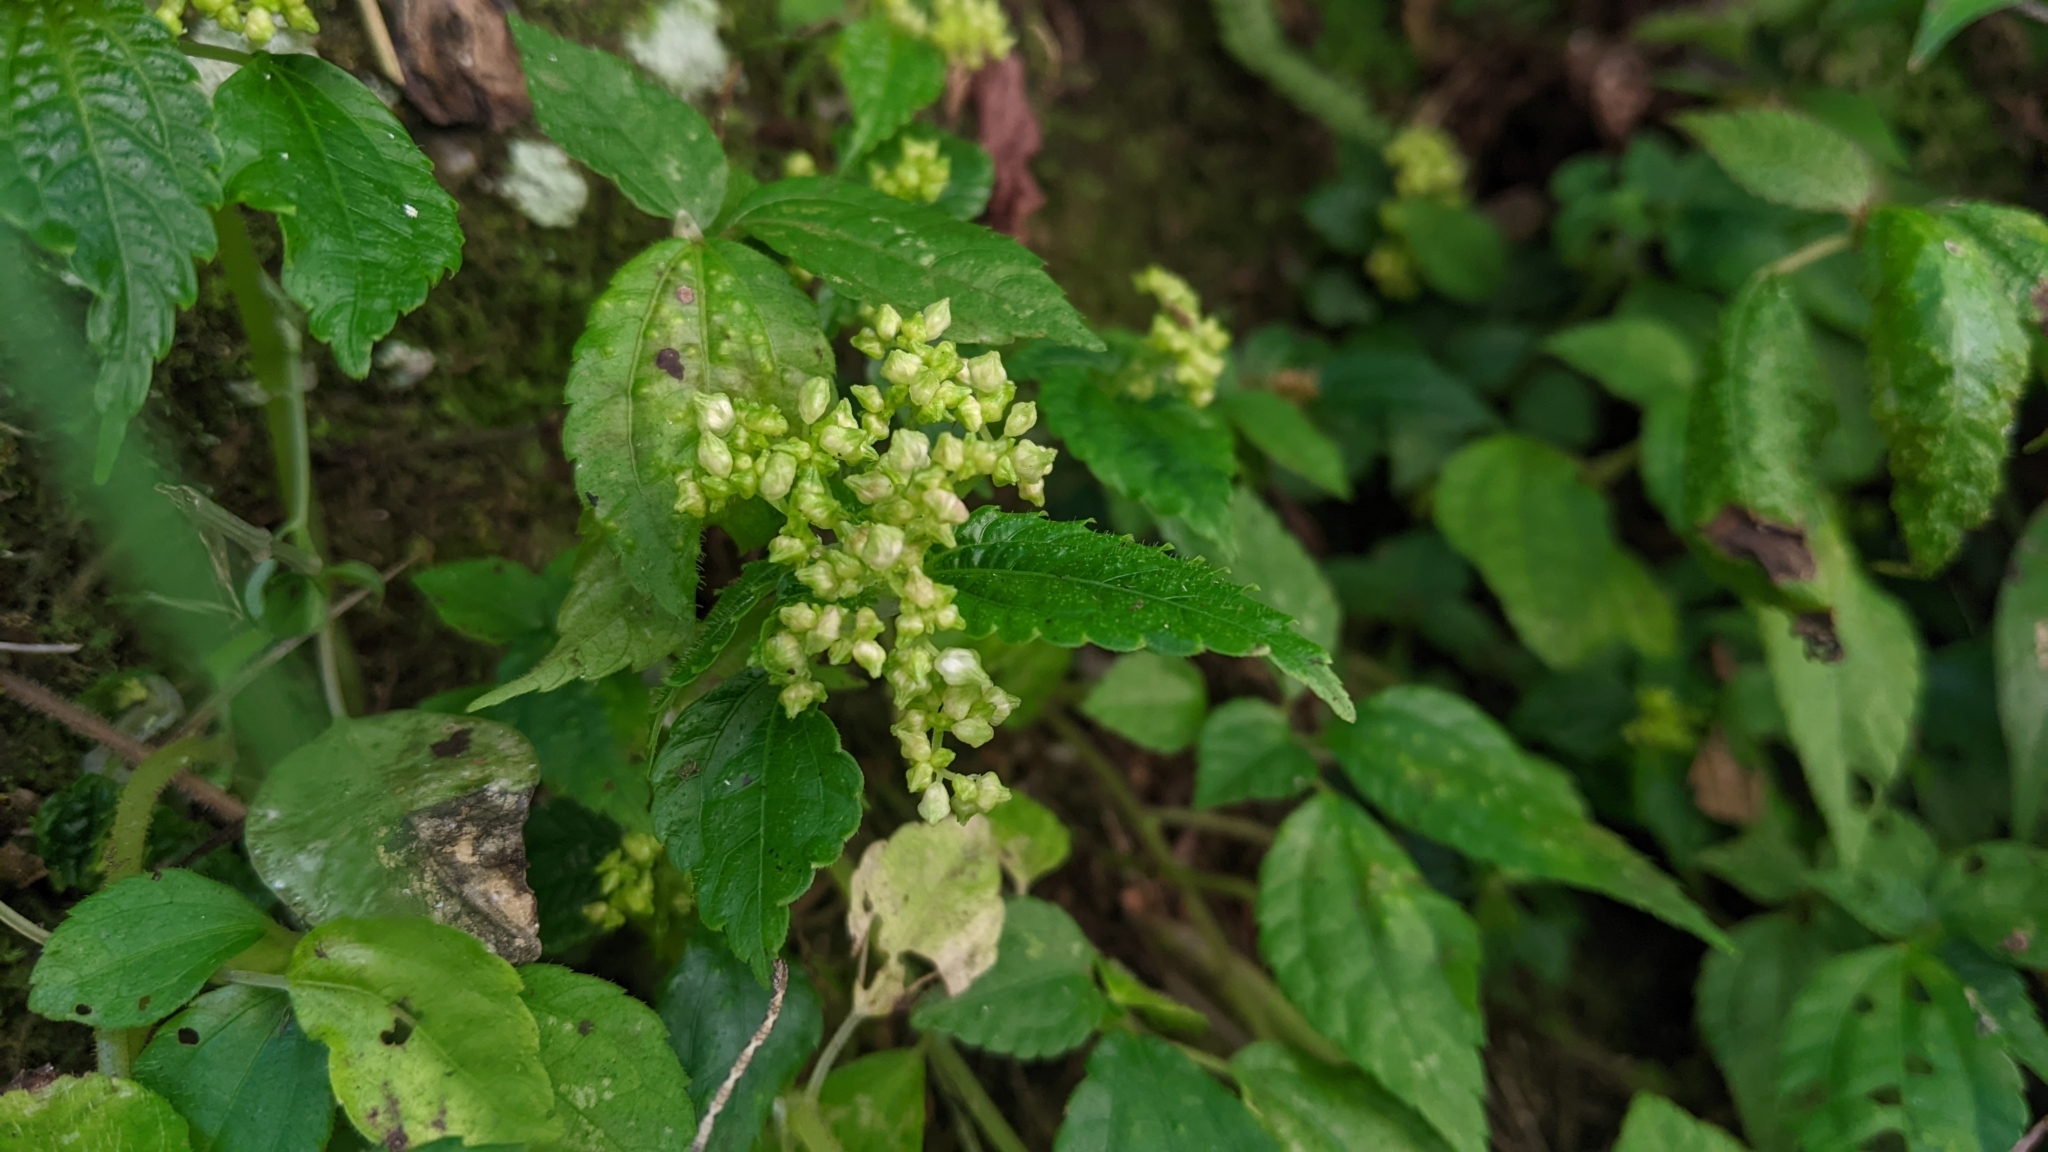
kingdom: Plantae
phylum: Tracheophyta
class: Magnoliopsida
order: Rosales
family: Urticaceae
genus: Pilea
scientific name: Pilea aquarum
